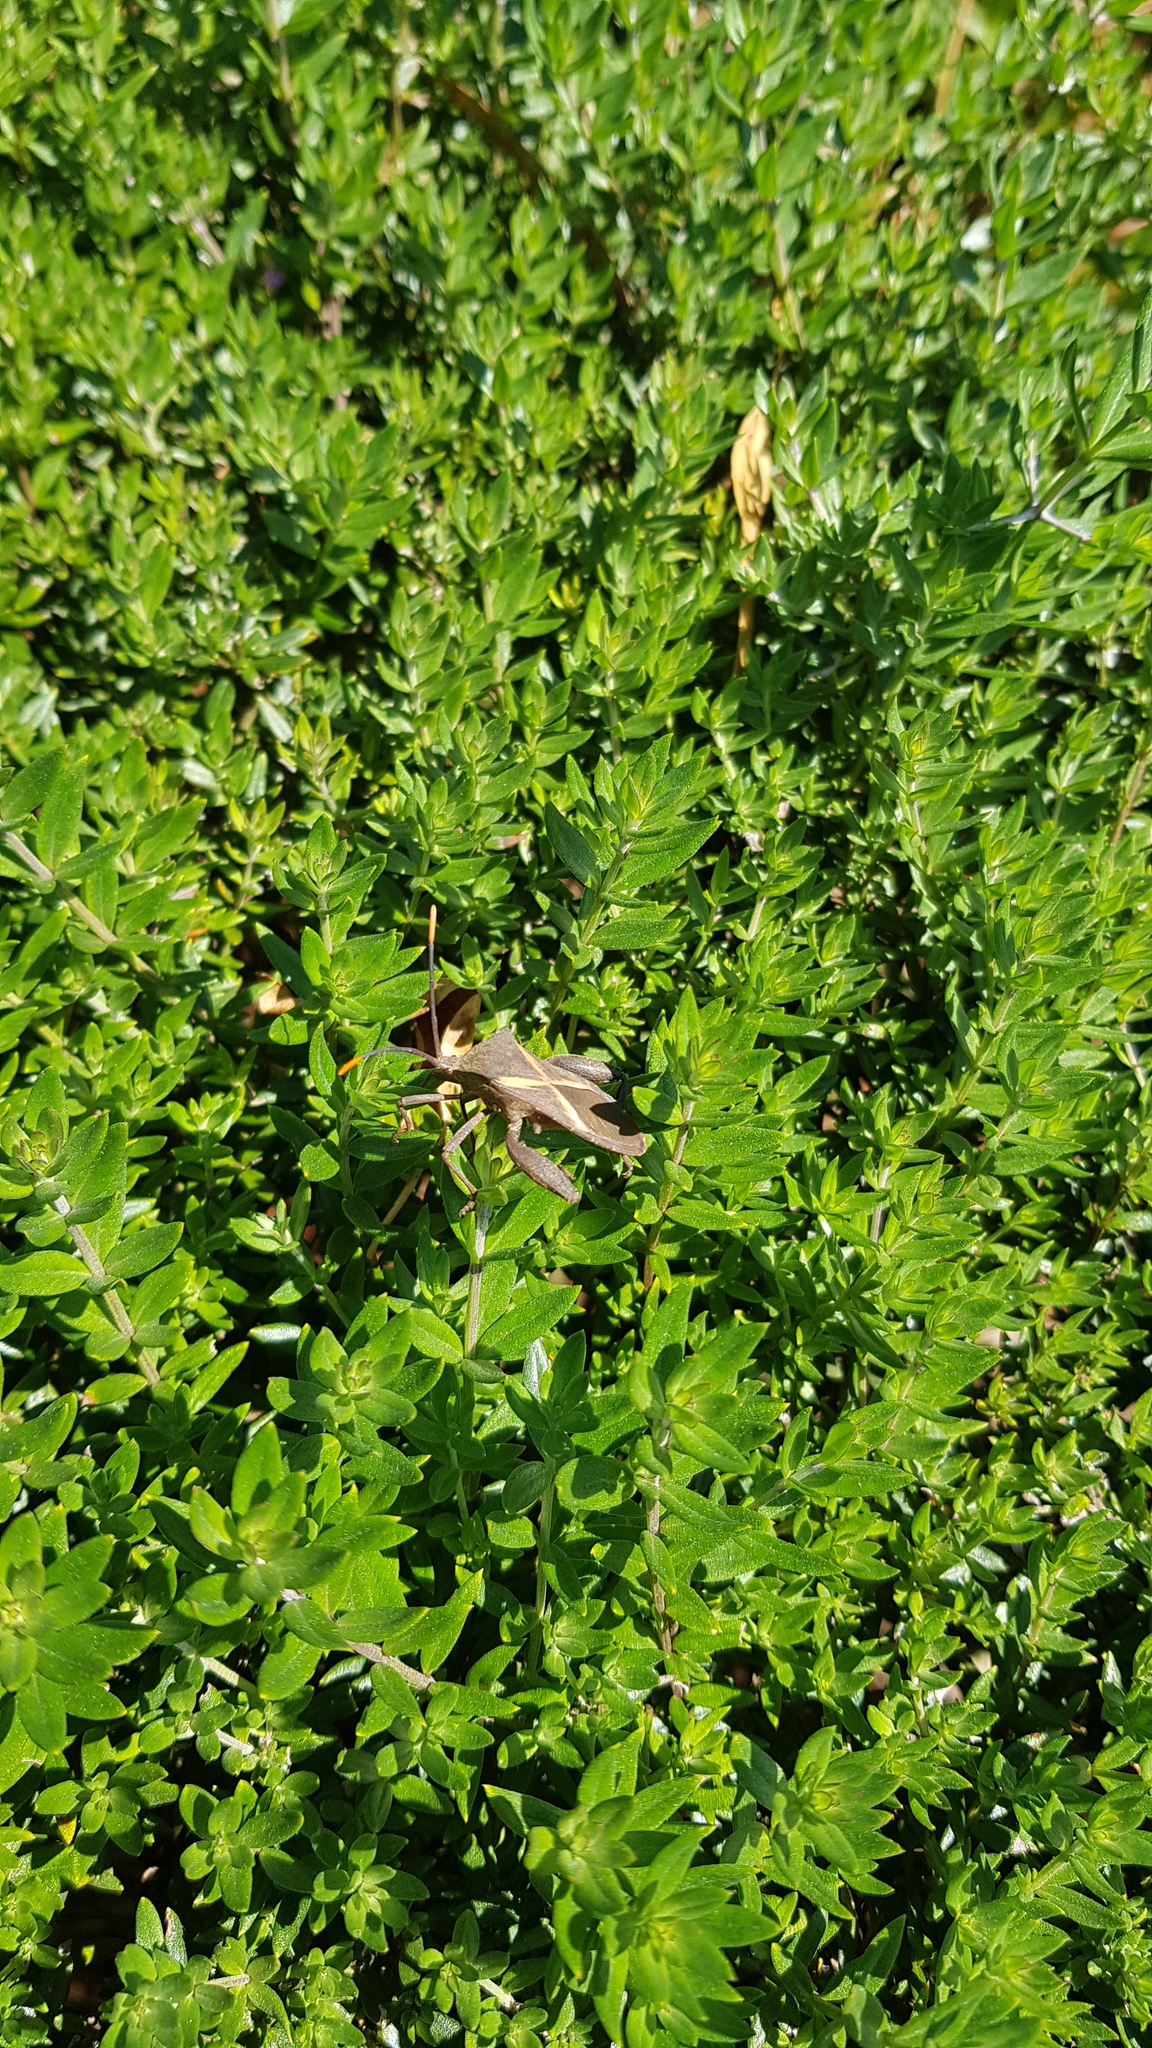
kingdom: Animalia
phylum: Arthropoda
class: Insecta
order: Hemiptera
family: Coreidae
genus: Mictis
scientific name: Mictis profana
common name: Crusader bug
